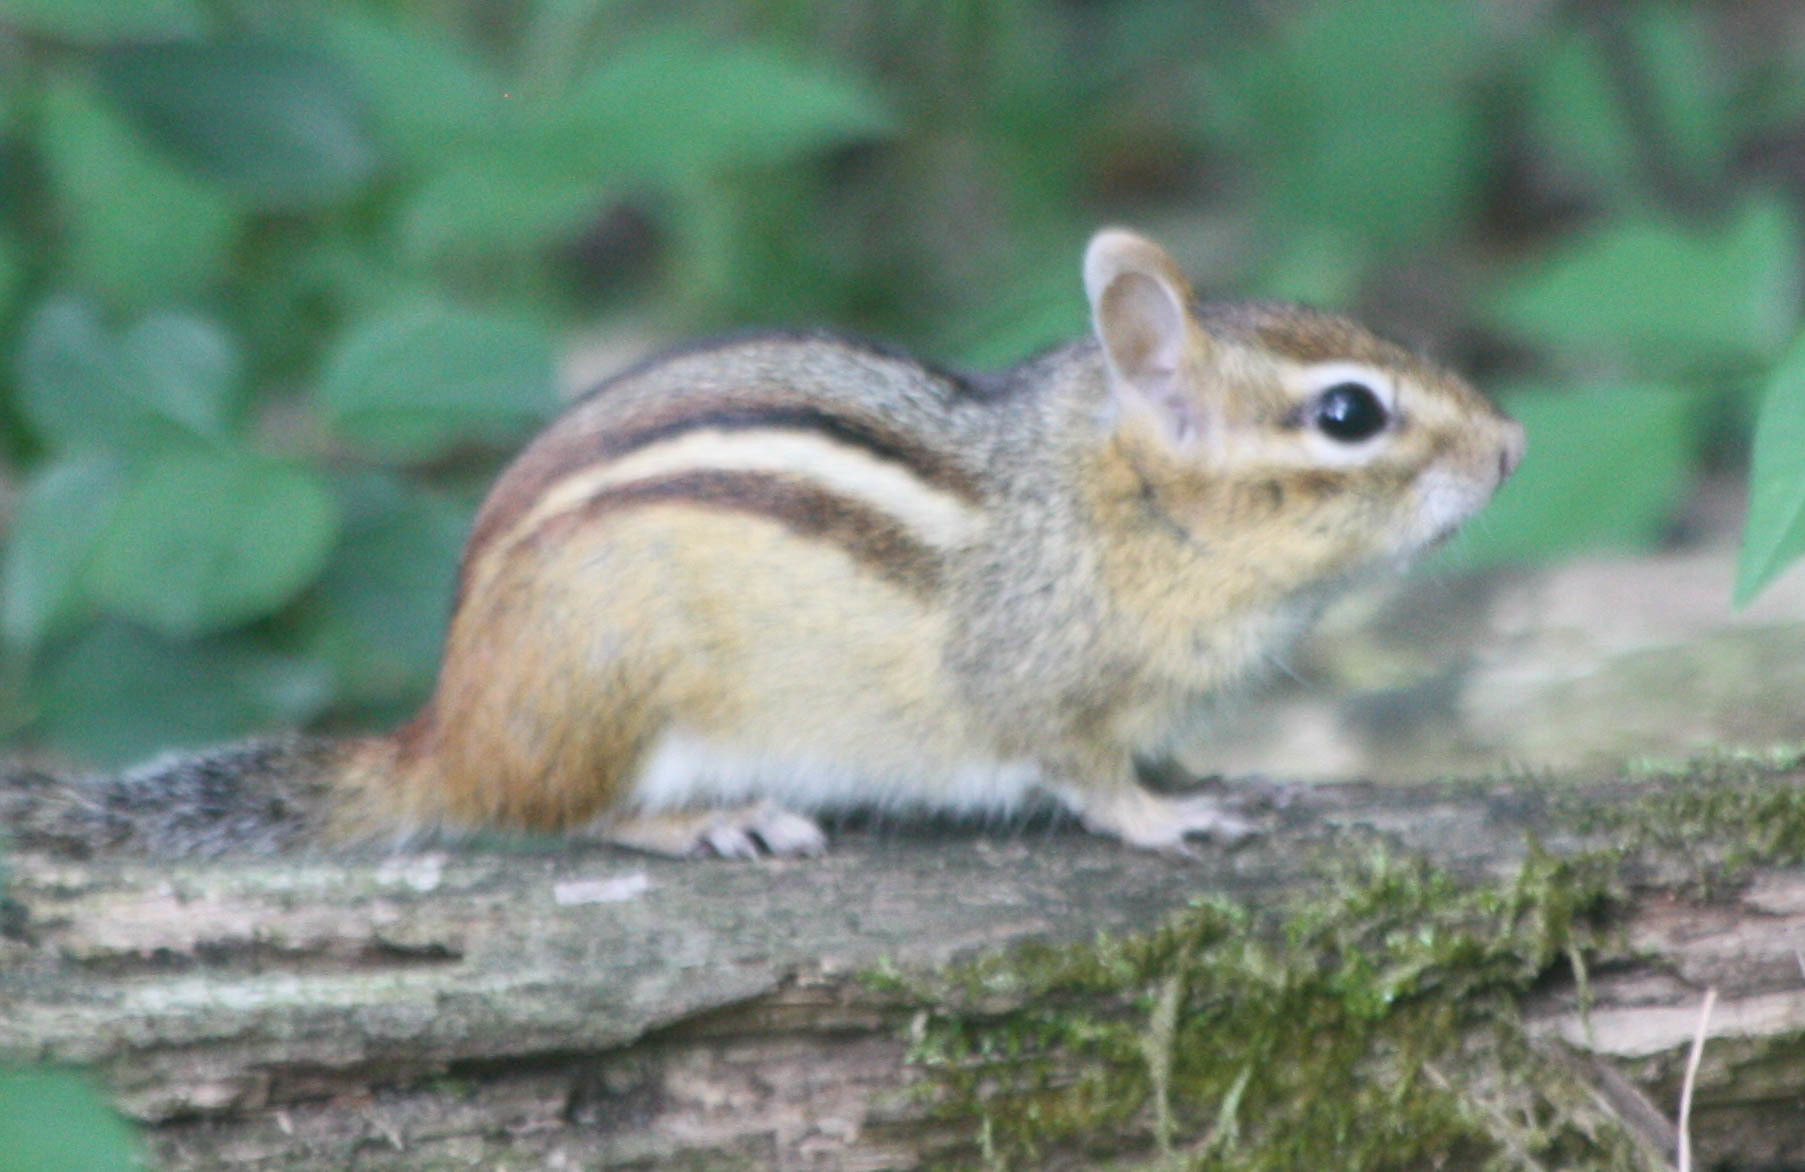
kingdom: Animalia
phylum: Chordata
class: Mammalia
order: Rodentia
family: Sciuridae
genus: Tamias
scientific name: Tamias striatus
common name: Eastern chipmunk
